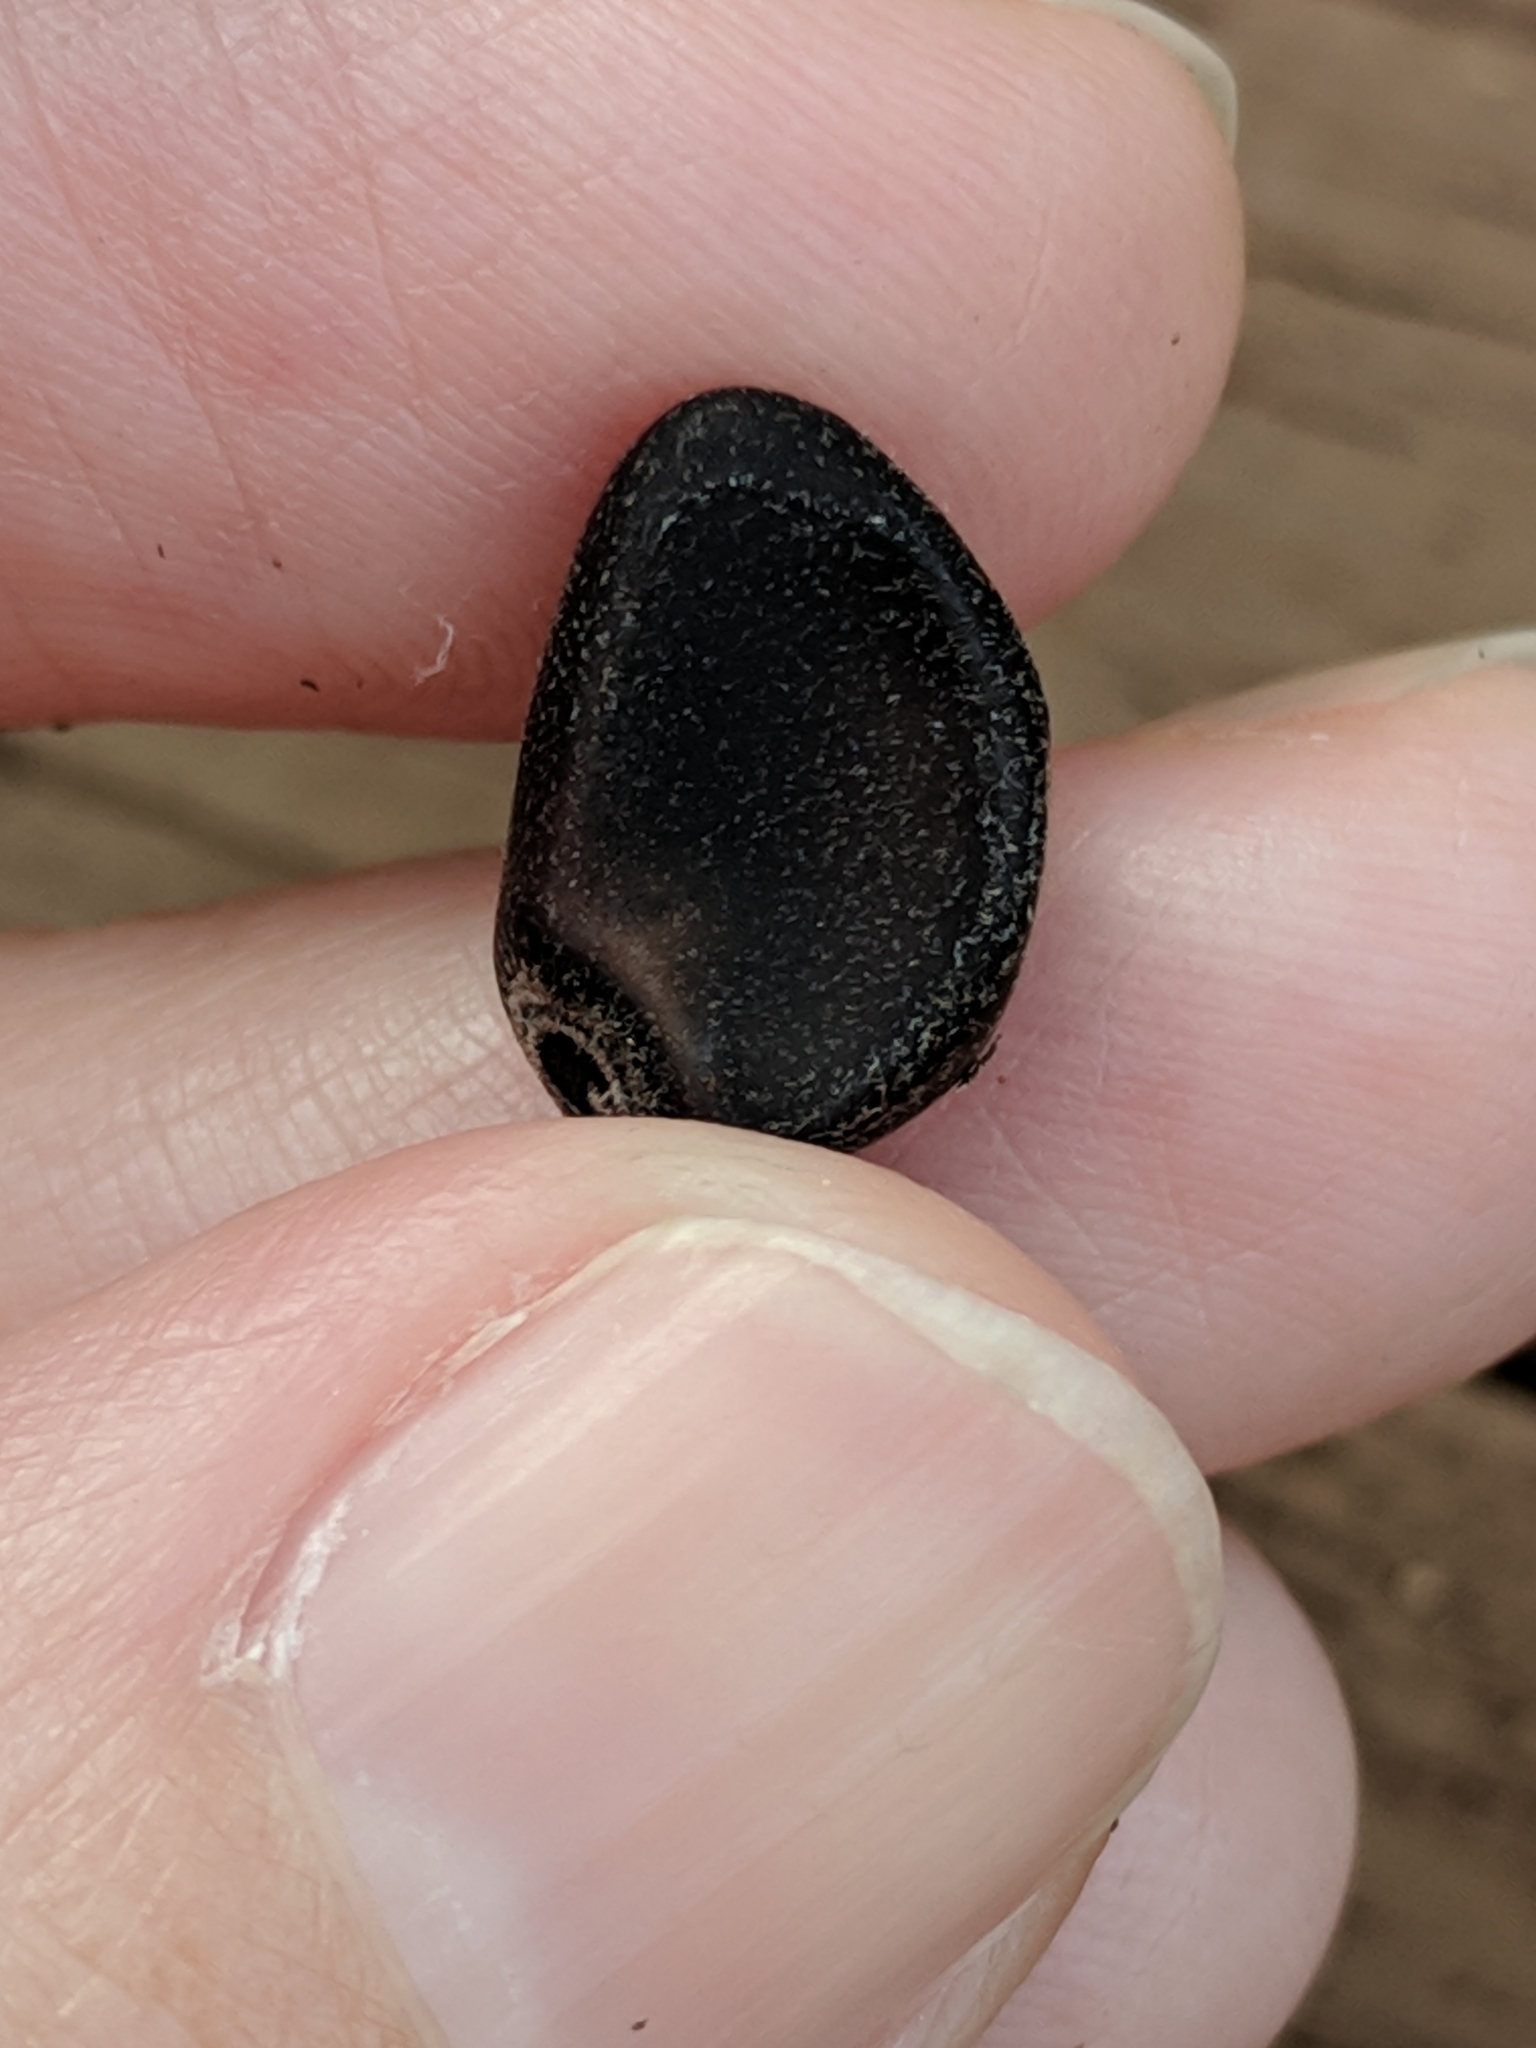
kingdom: Plantae
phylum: Tracheophyta
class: Magnoliopsida
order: Solanales
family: Convolvulaceae
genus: Ipomoea
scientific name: Ipomoea alba
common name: Moonflower
